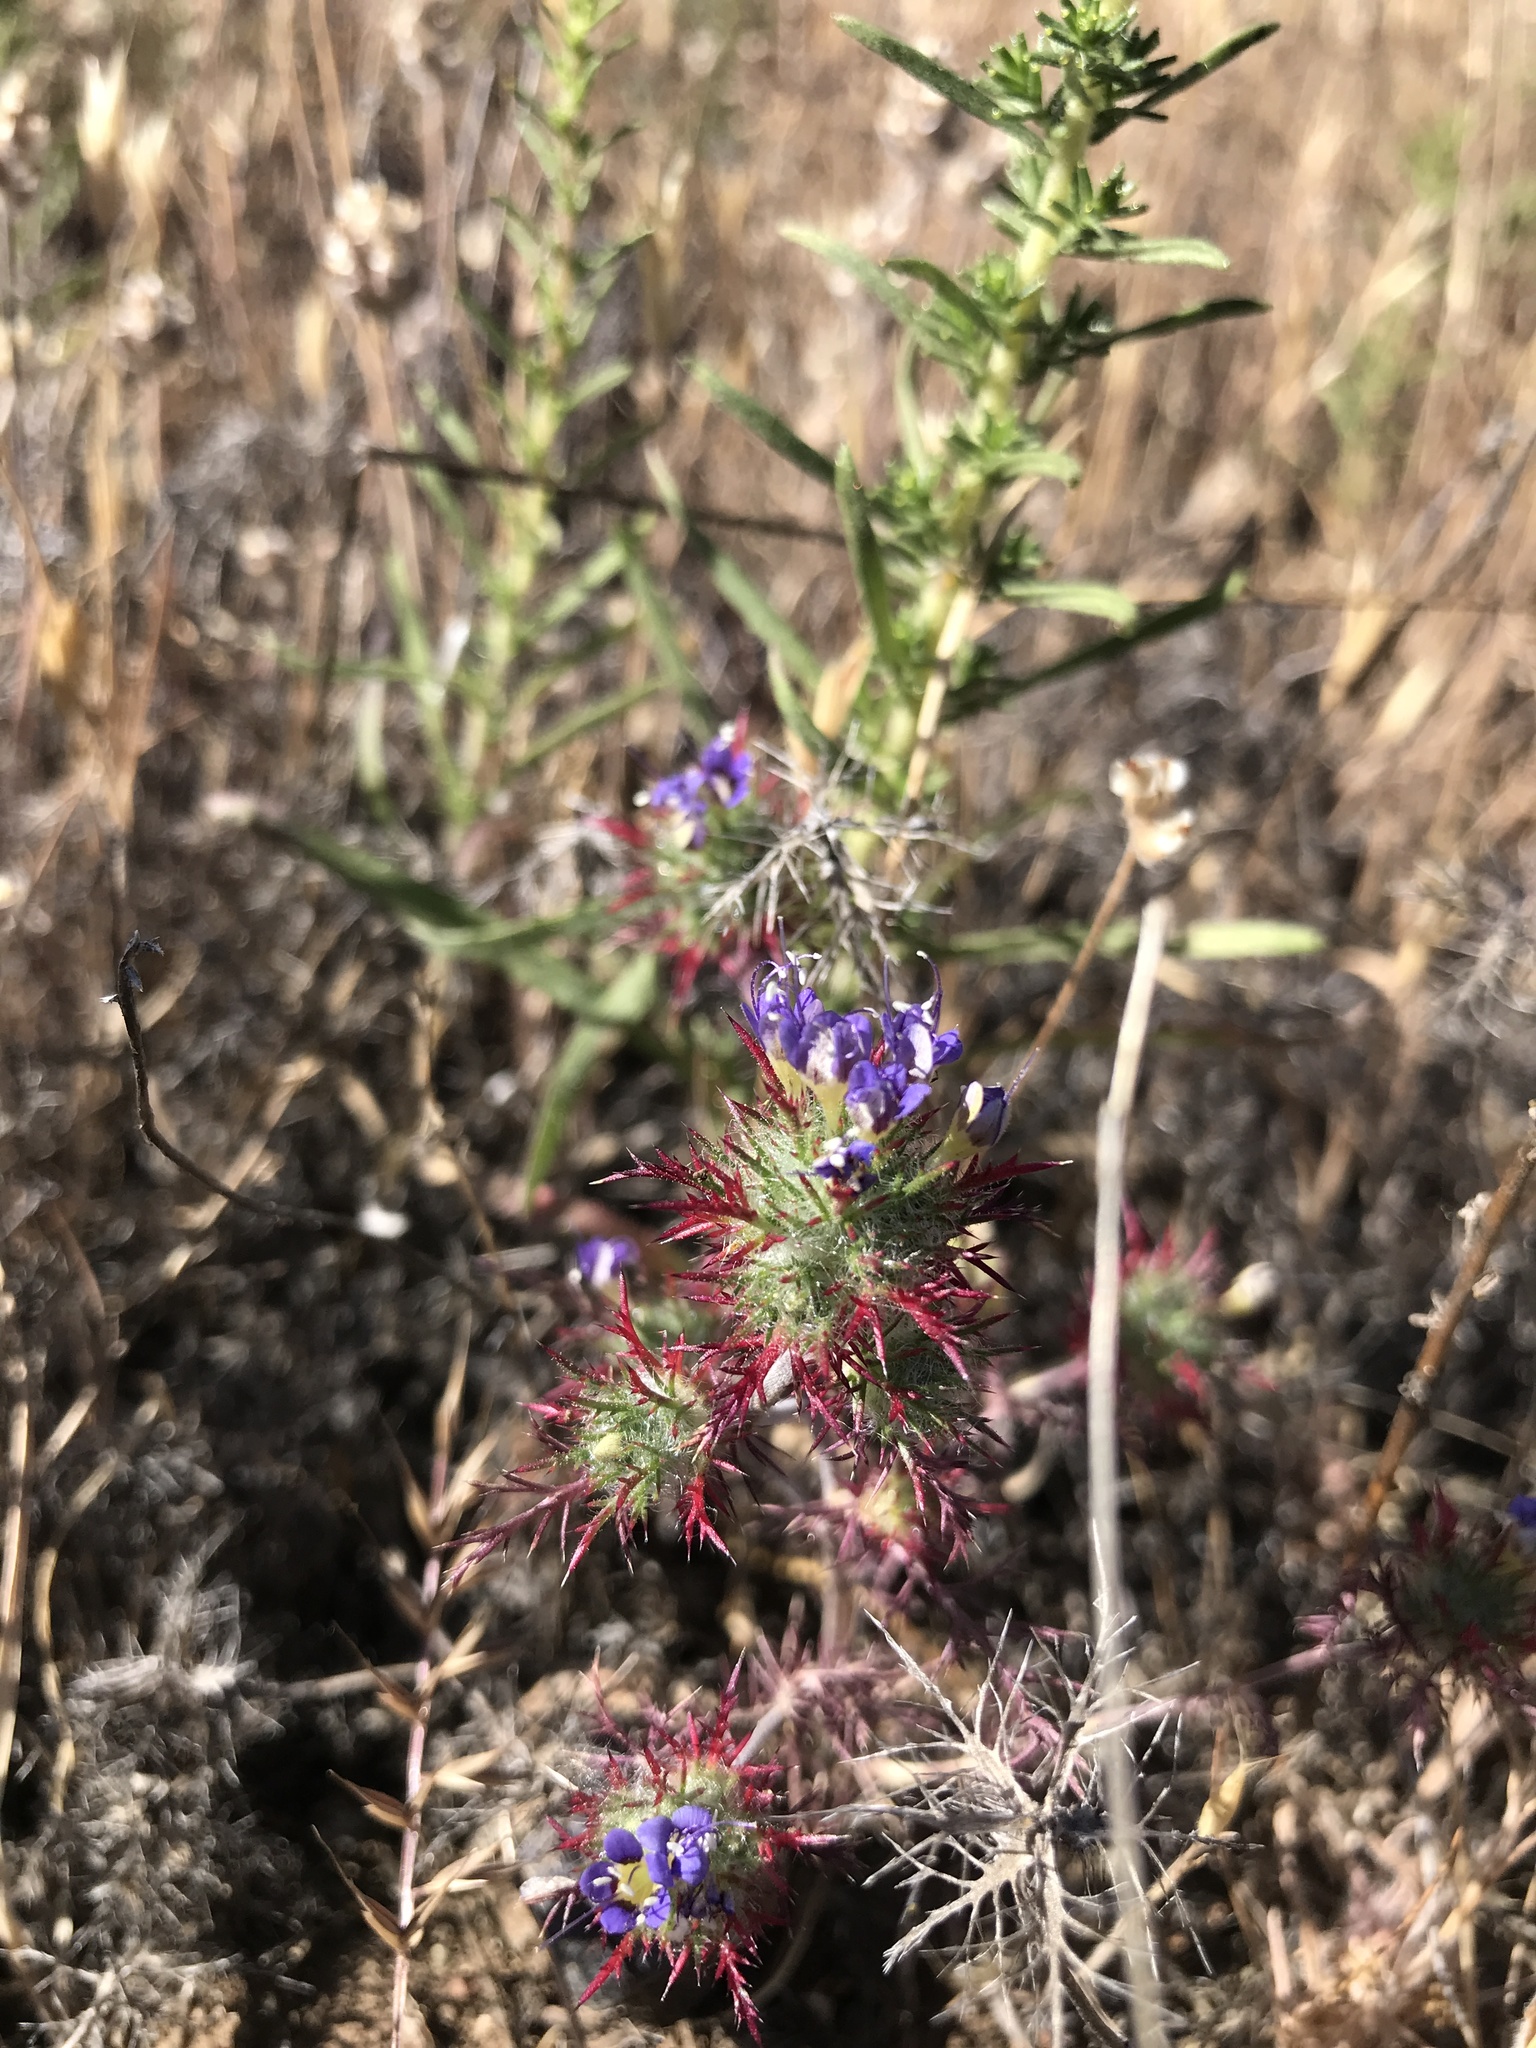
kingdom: Plantae
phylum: Tracheophyta
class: Magnoliopsida
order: Ericales
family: Polemoniaceae
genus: Navarretia
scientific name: Navarretia jepsonii
